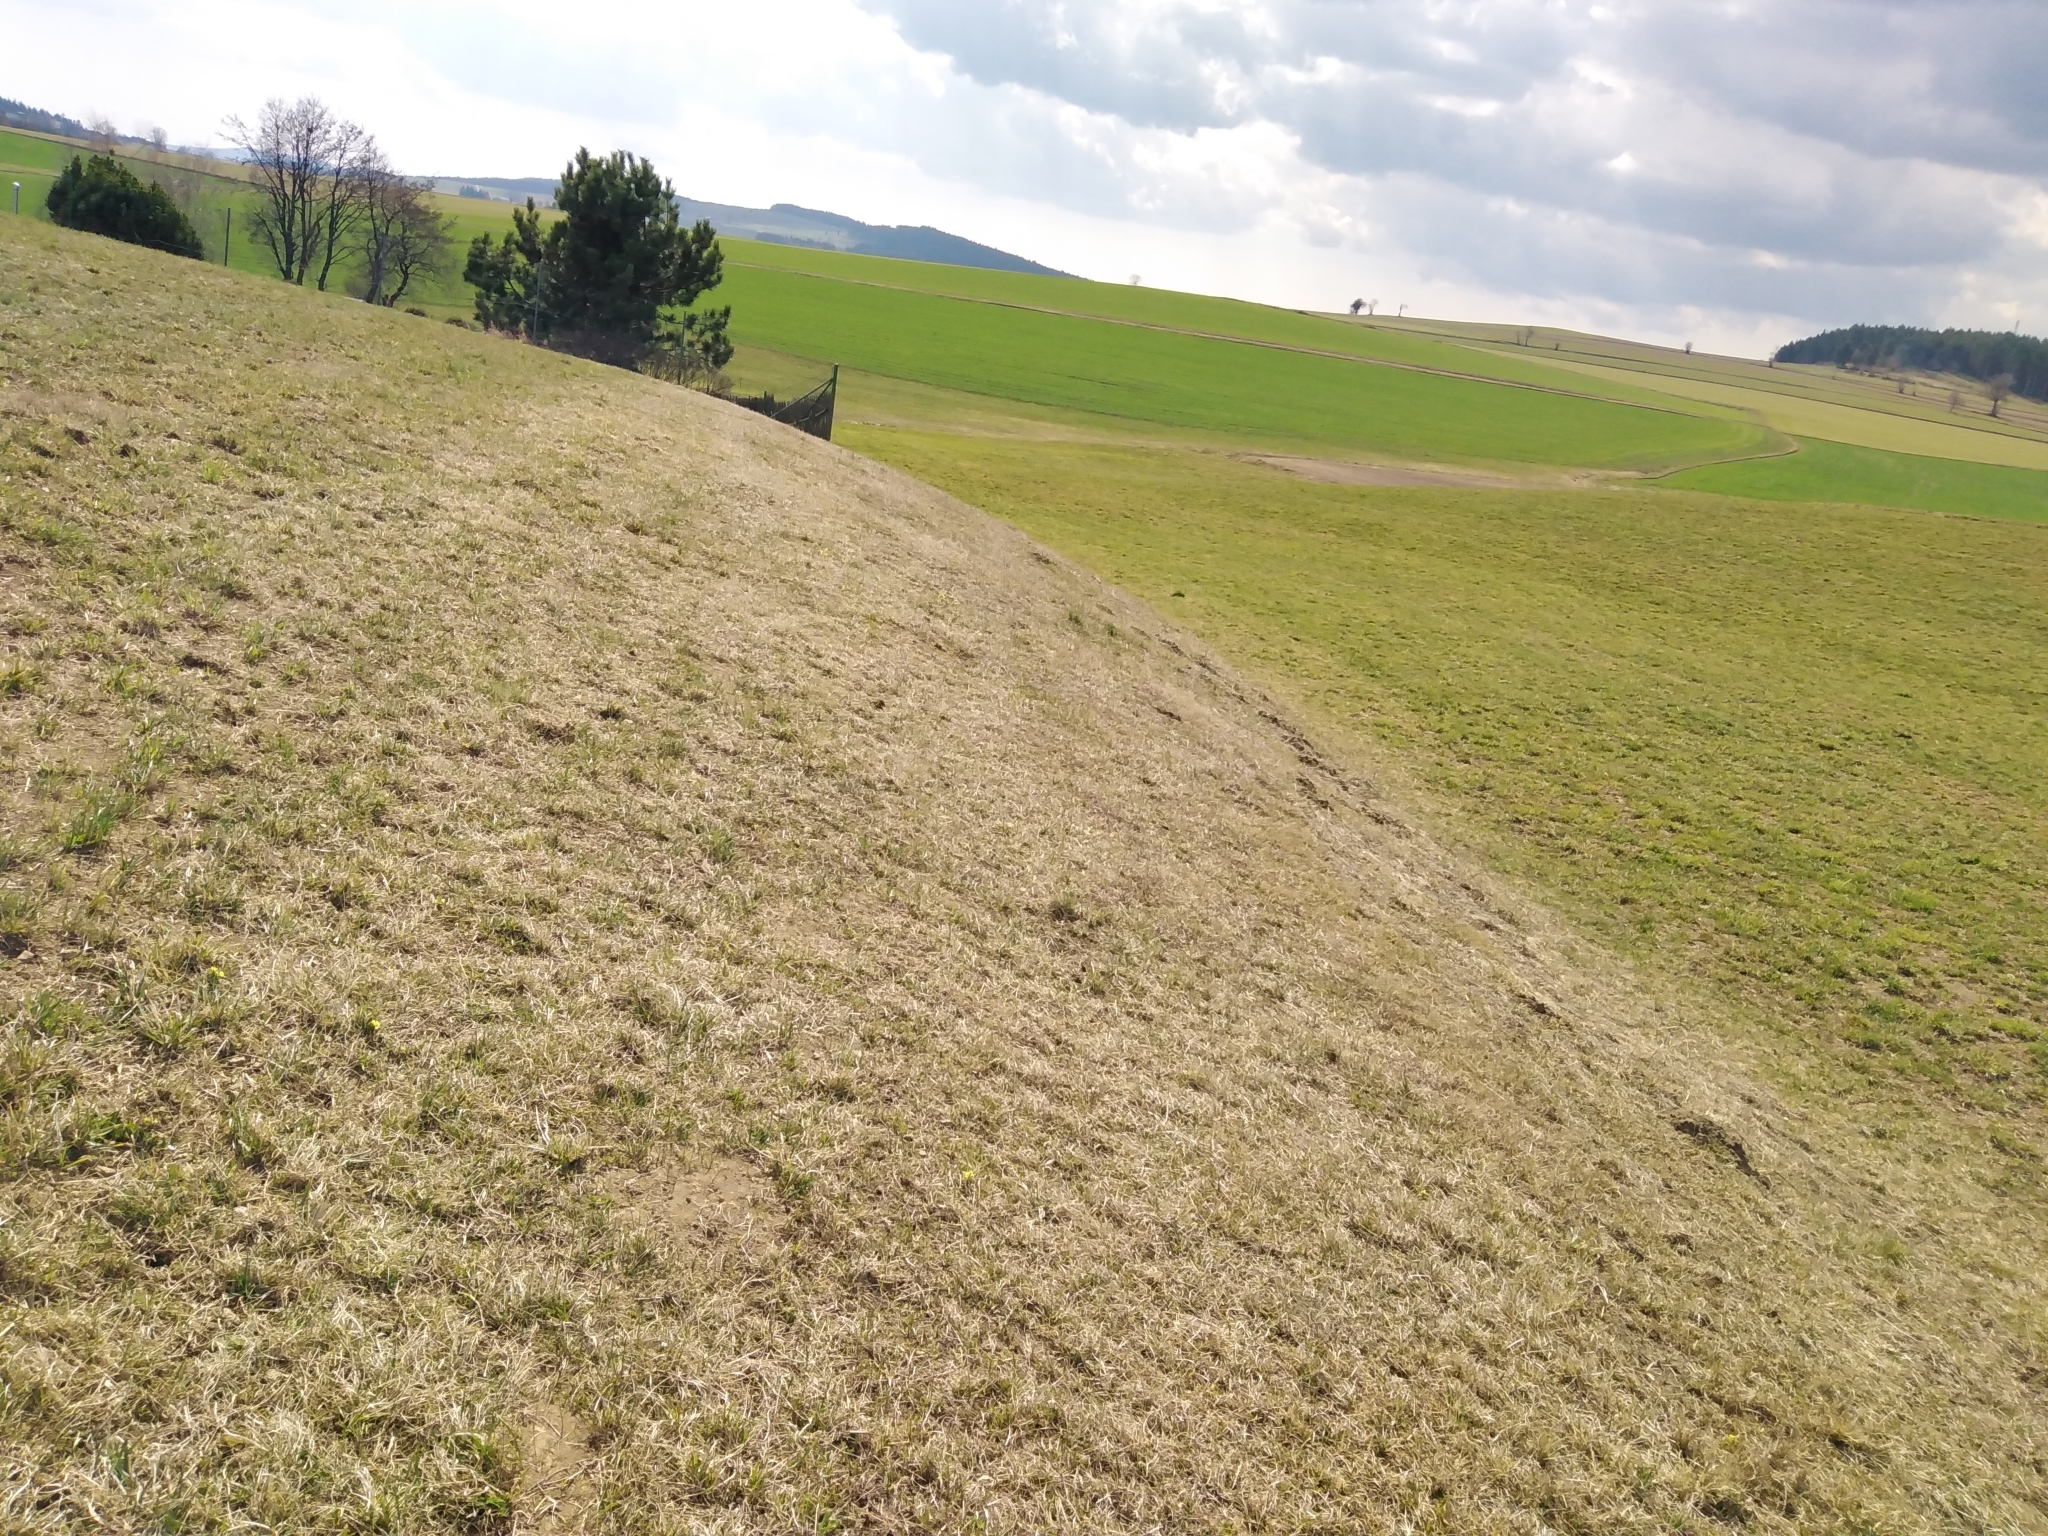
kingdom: Plantae
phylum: Tracheophyta
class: Magnoliopsida
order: Ericales
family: Primulaceae
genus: Primula
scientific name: Primula elatior
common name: Oxlip
